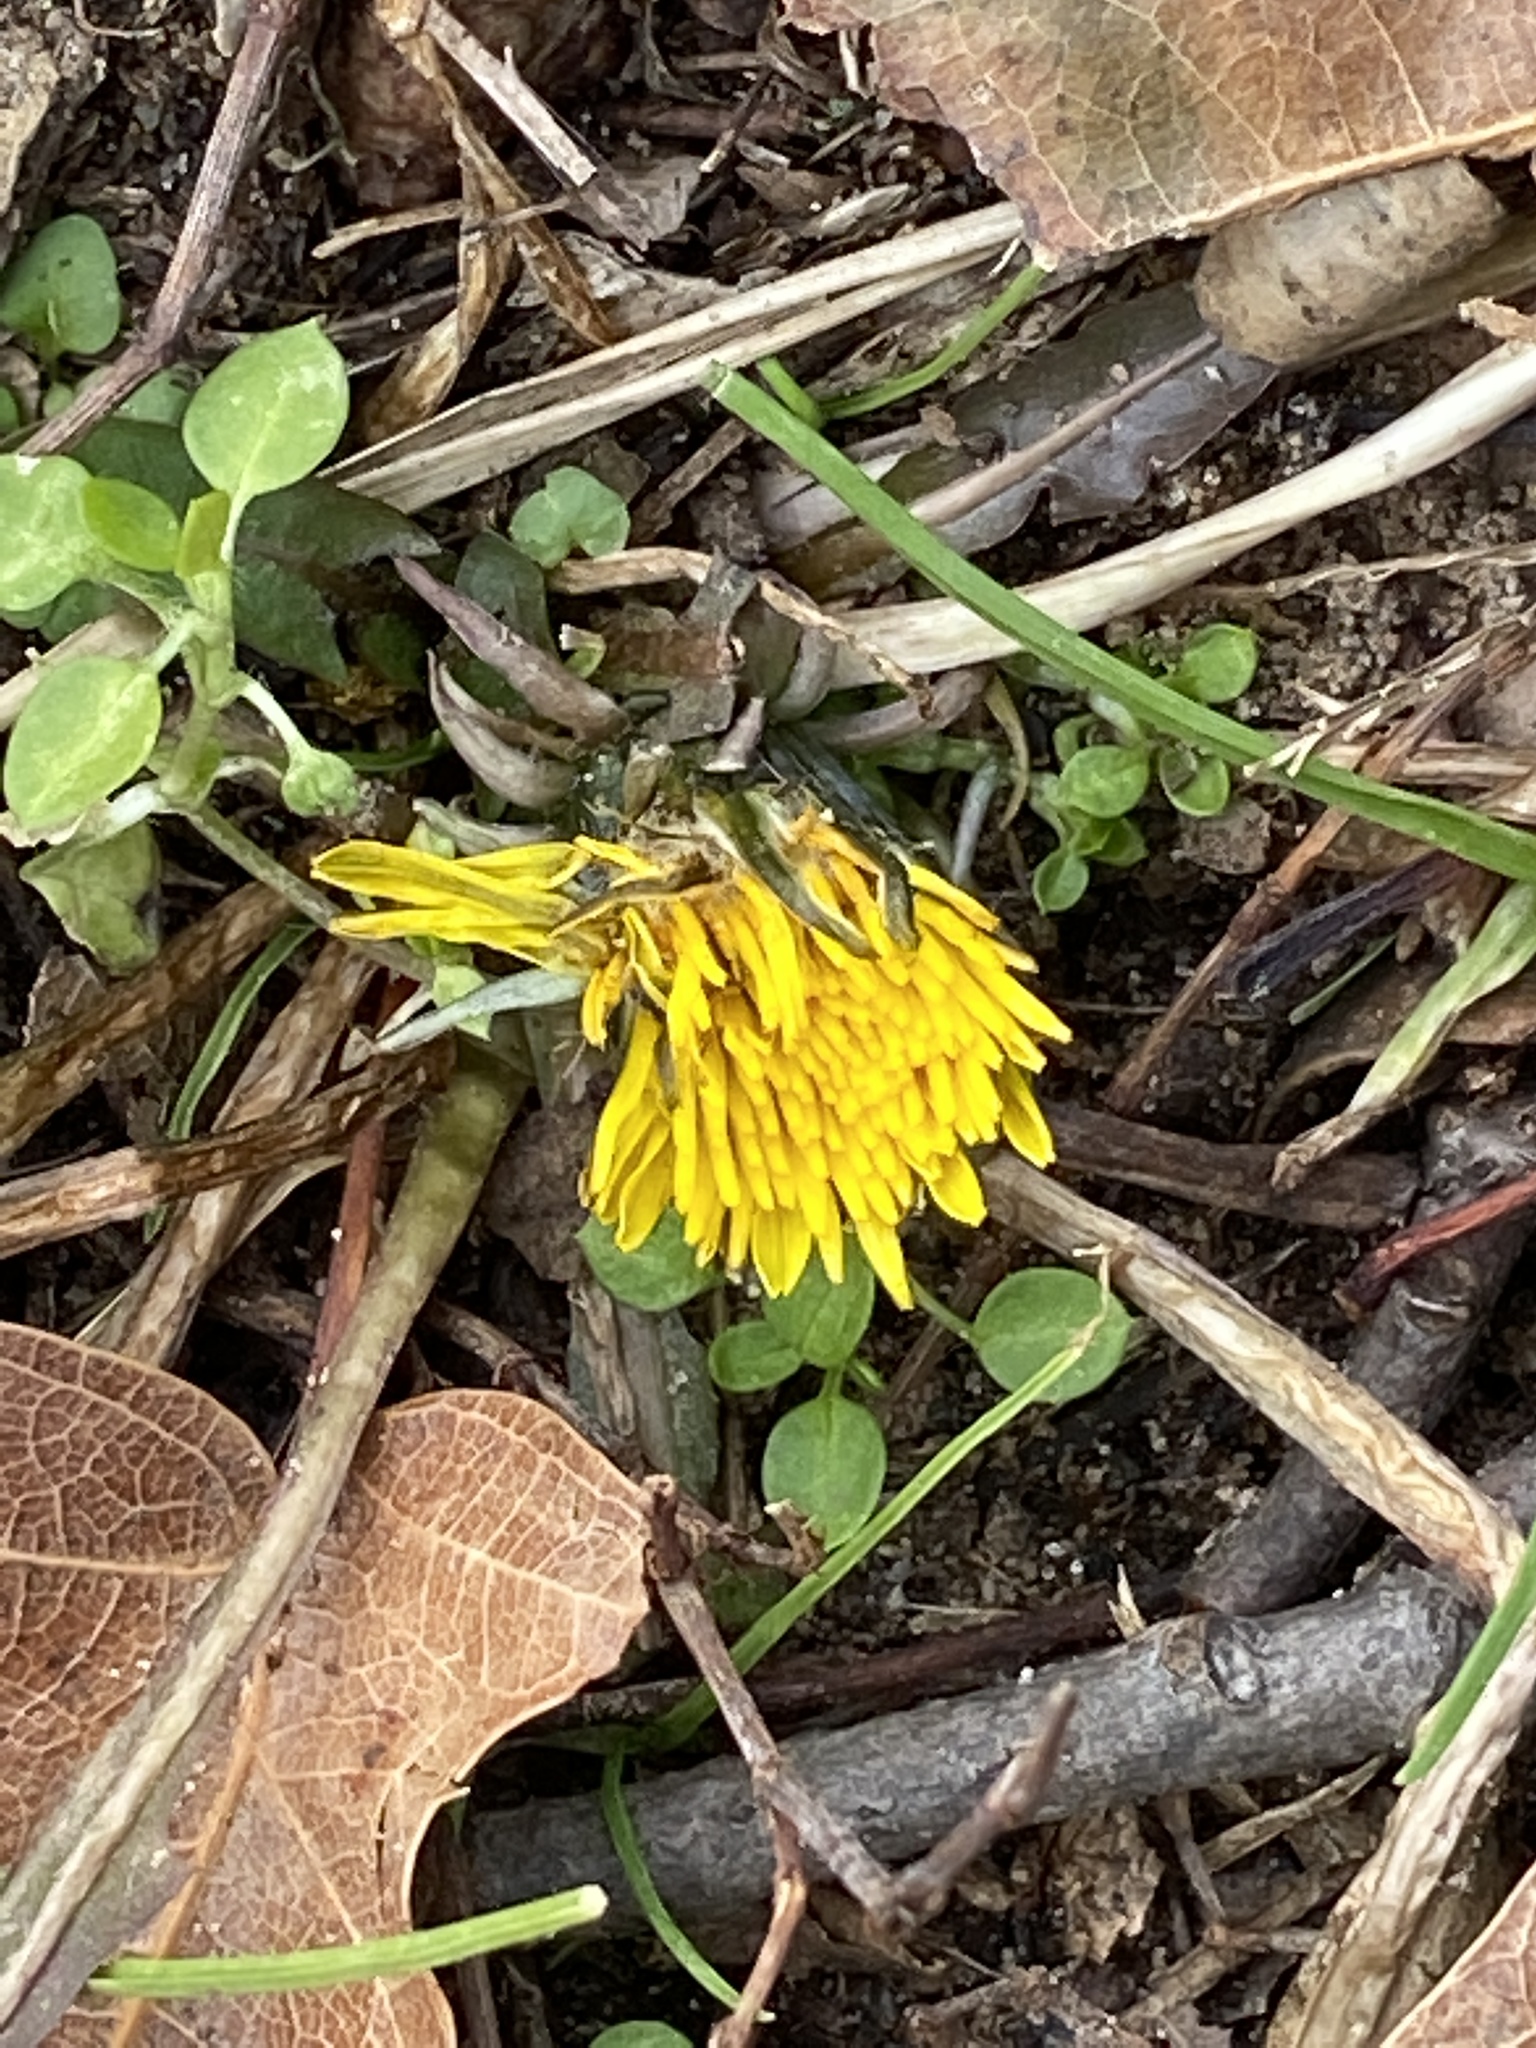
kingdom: Plantae
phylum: Tracheophyta
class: Magnoliopsida
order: Asterales
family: Asteraceae
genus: Taraxacum
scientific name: Taraxacum officinale
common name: Common dandelion
